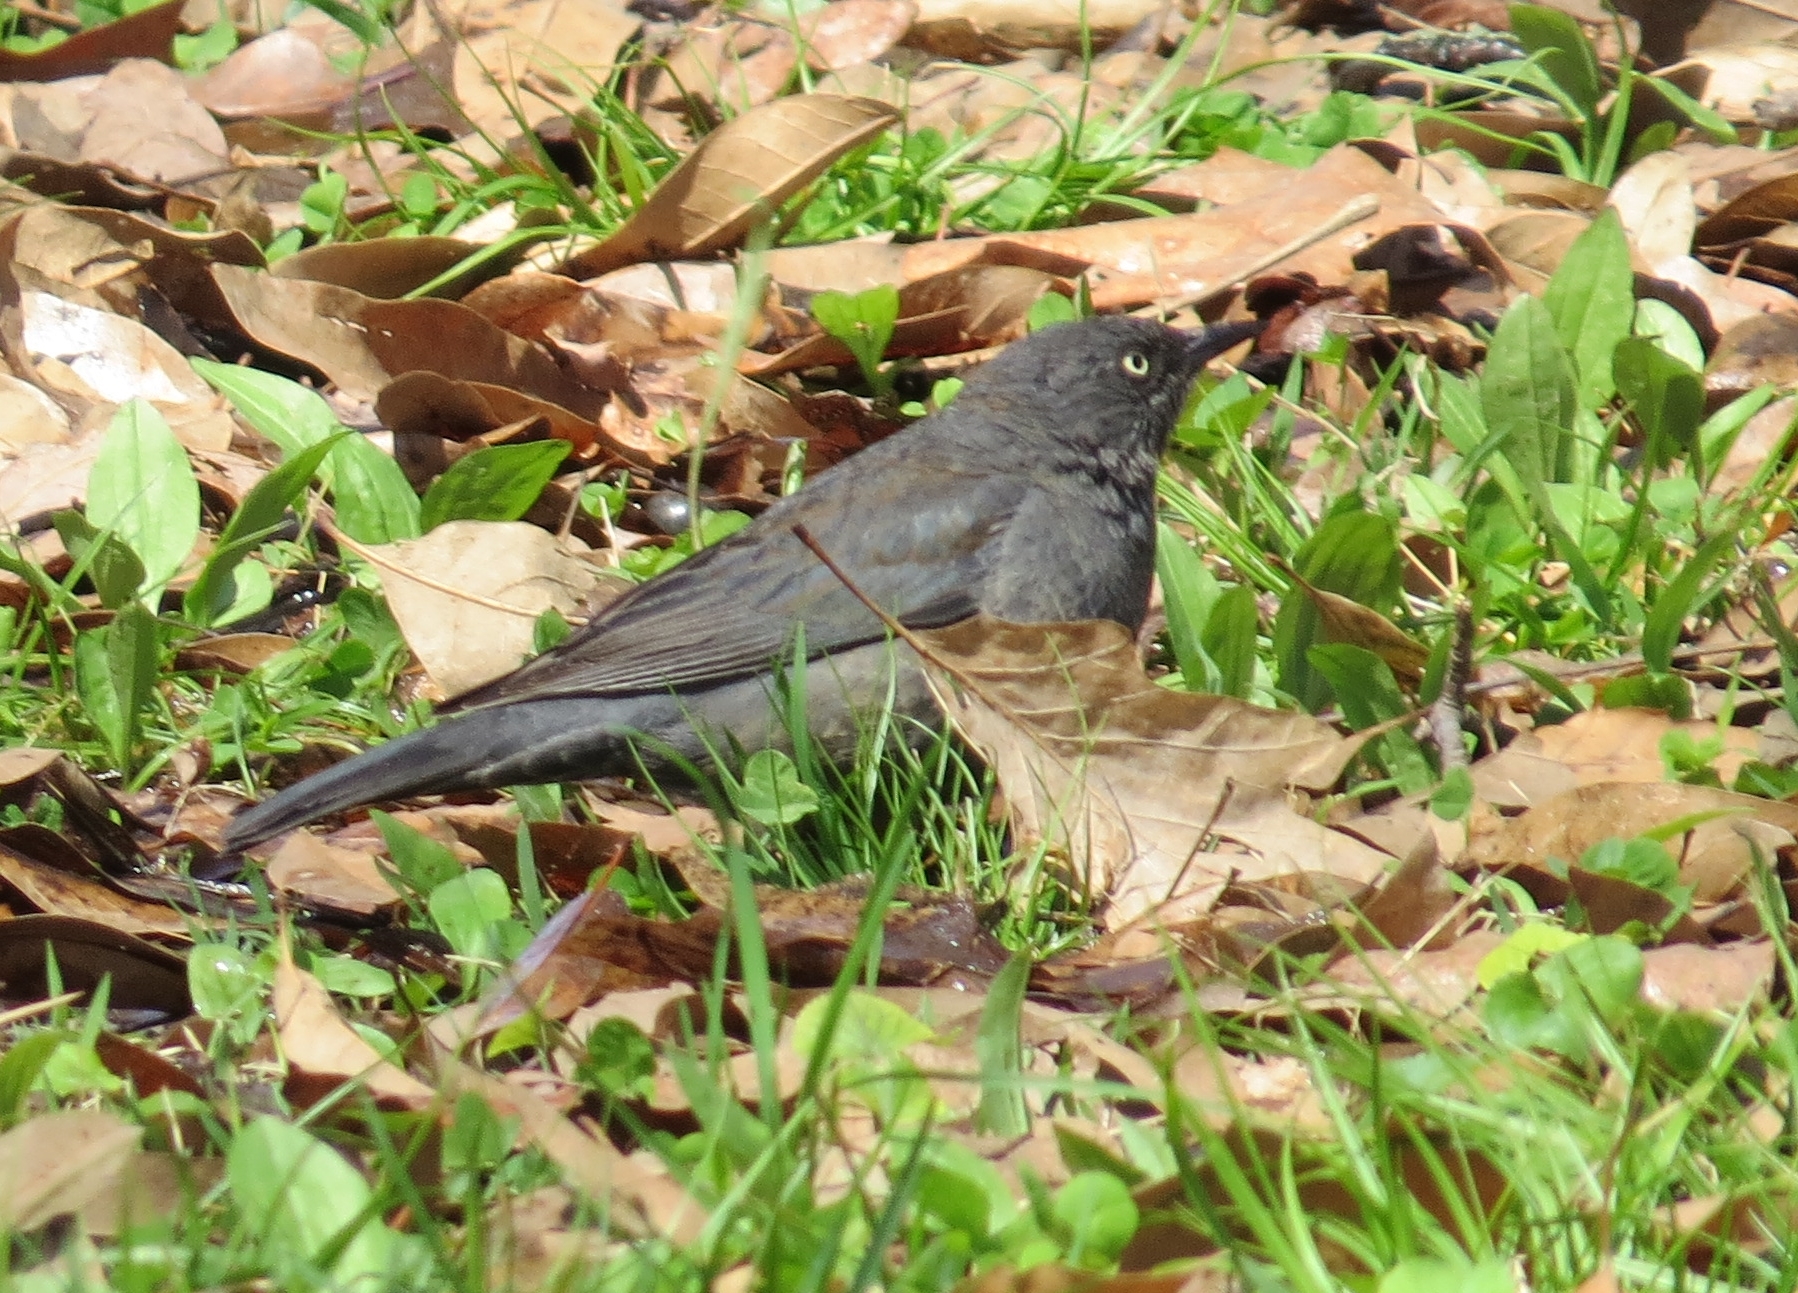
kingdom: Animalia
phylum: Chordata
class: Aves
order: Passeriformes
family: Icteridae
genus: Euphagus
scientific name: Euphagus carolinus
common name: Rusty blackbird
